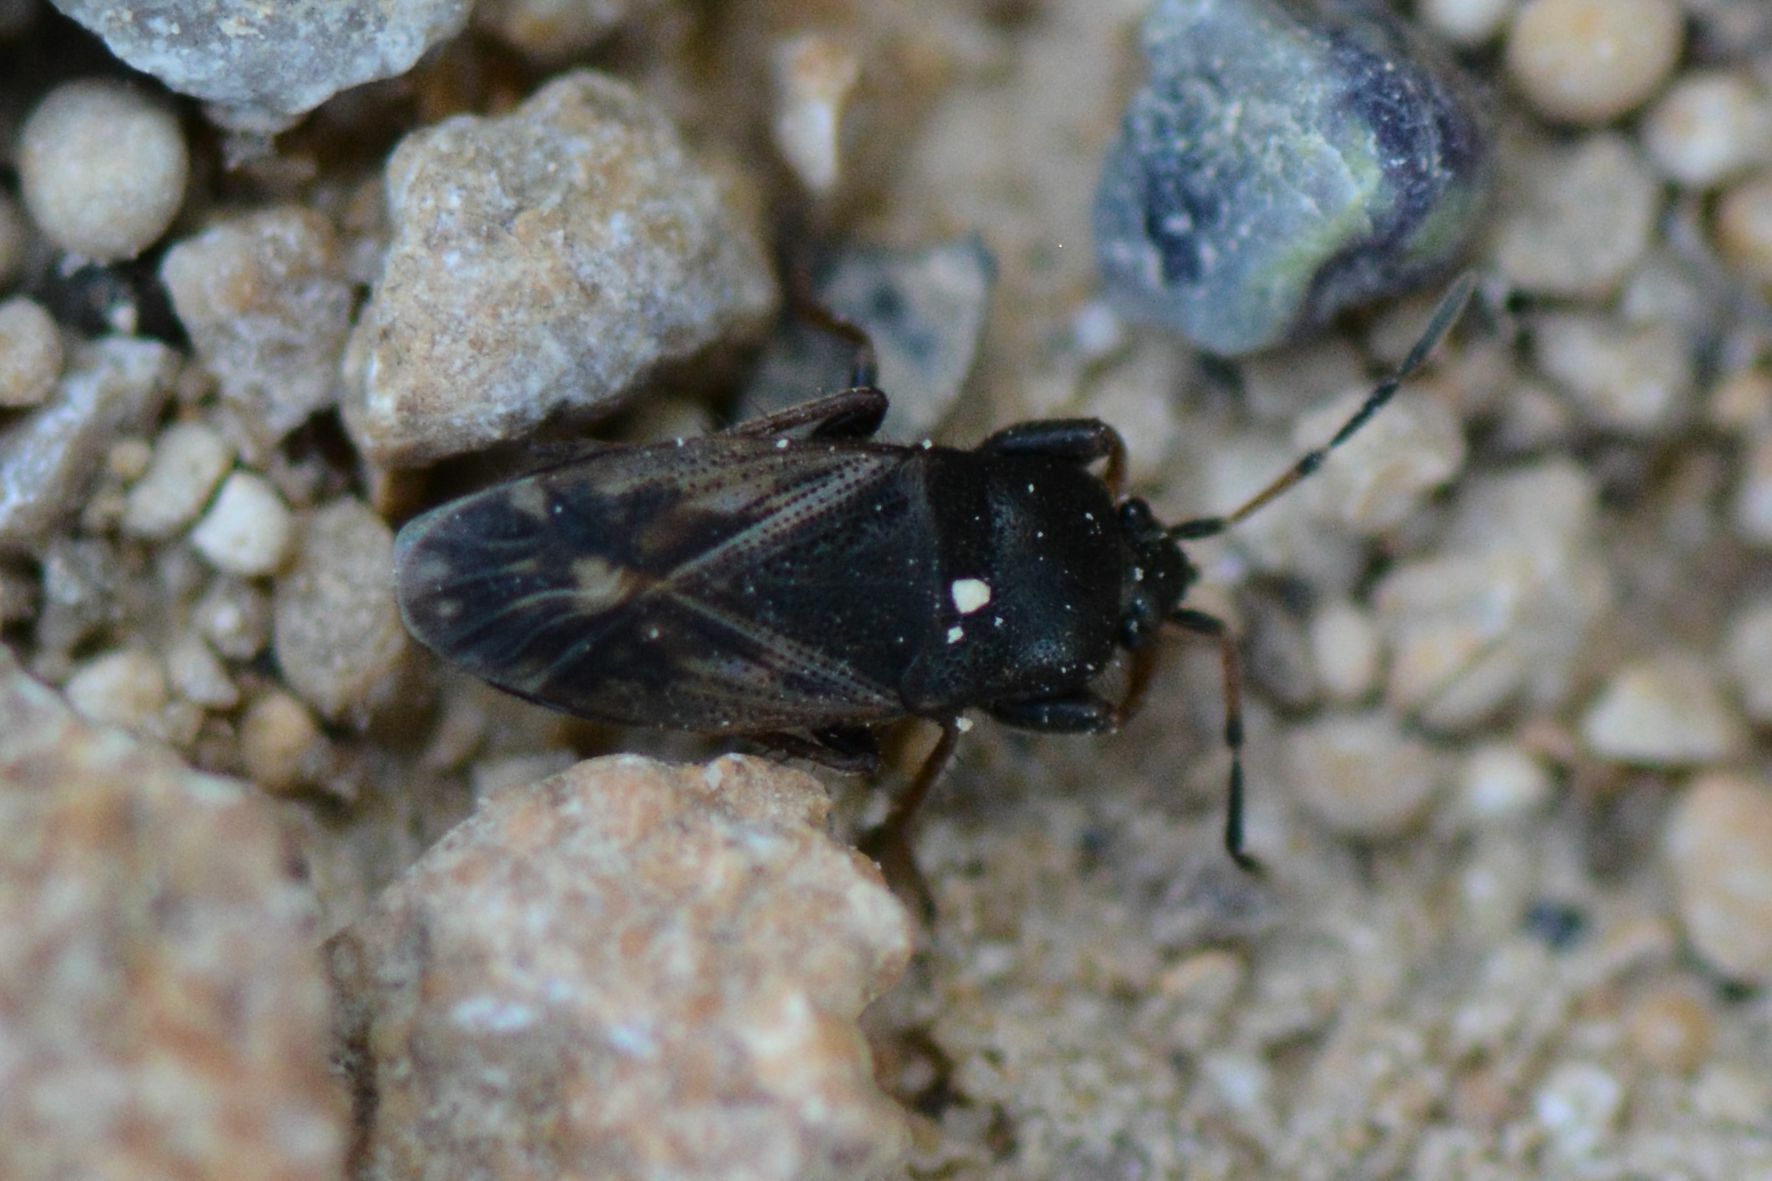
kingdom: Animalia
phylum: Arthropoda
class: Insecta
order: Hemiptera
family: Rhyparochromidae
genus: Megalonotus
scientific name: Megalonotus emarginatus
